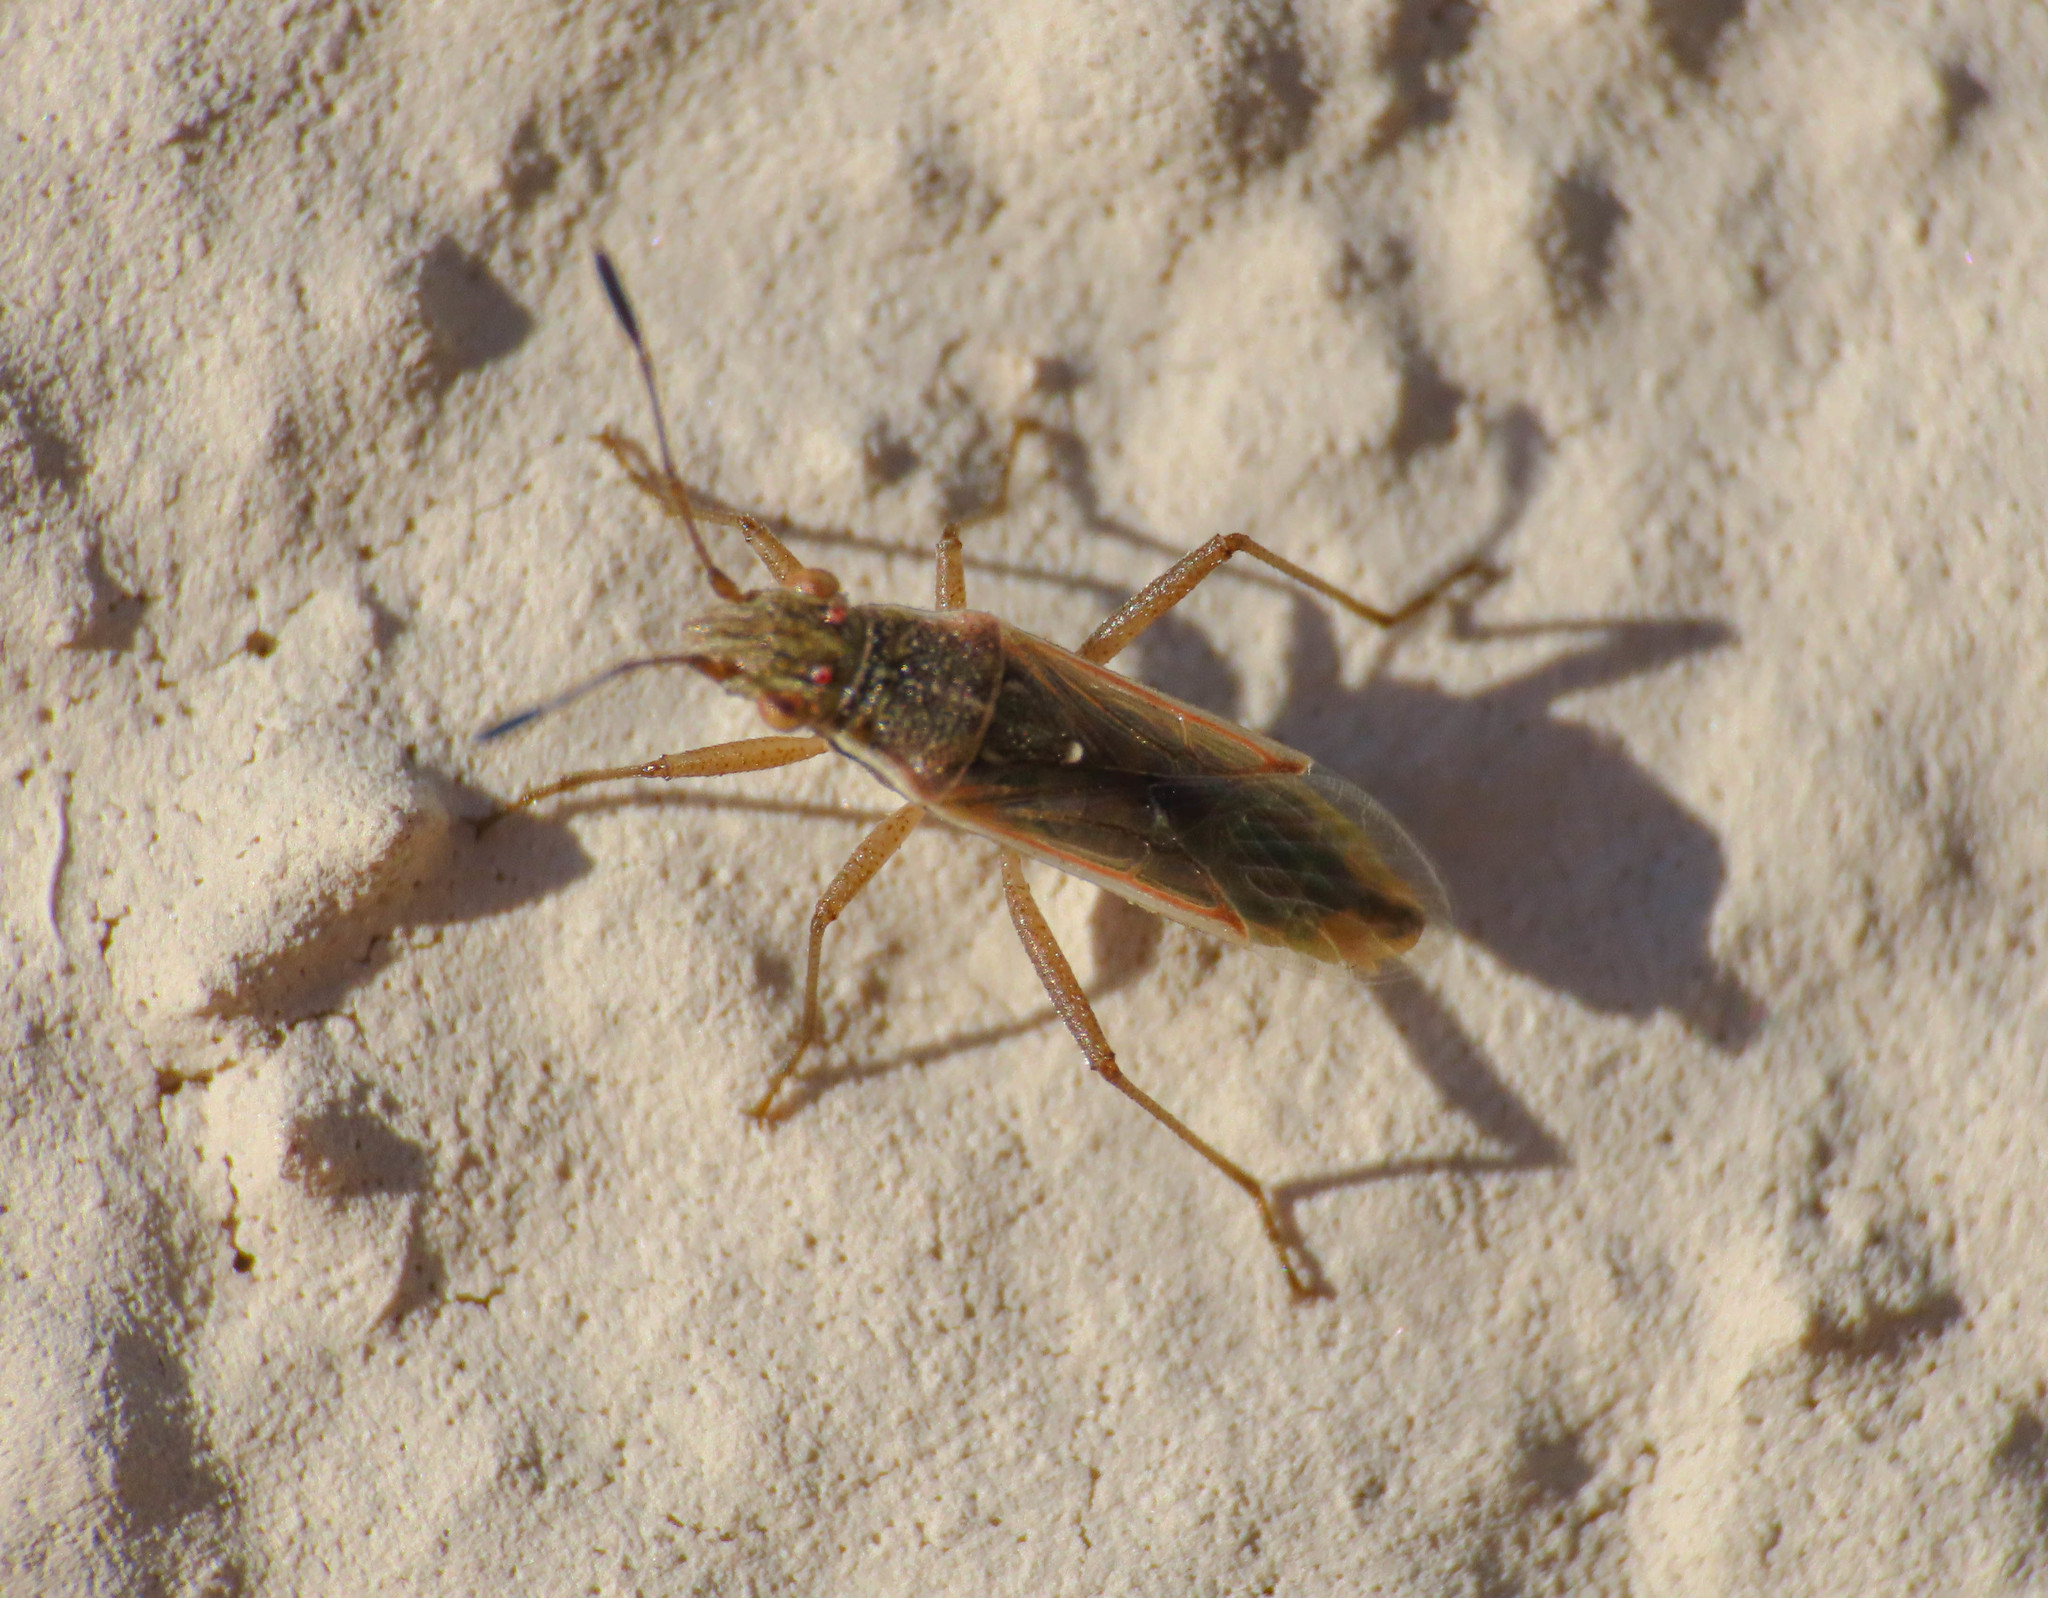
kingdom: Animalia
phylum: Arthropoda
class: Insecta
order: Hemiptera
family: Rhopalidae
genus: Agraphopus
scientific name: Agraphopus lethierryi
